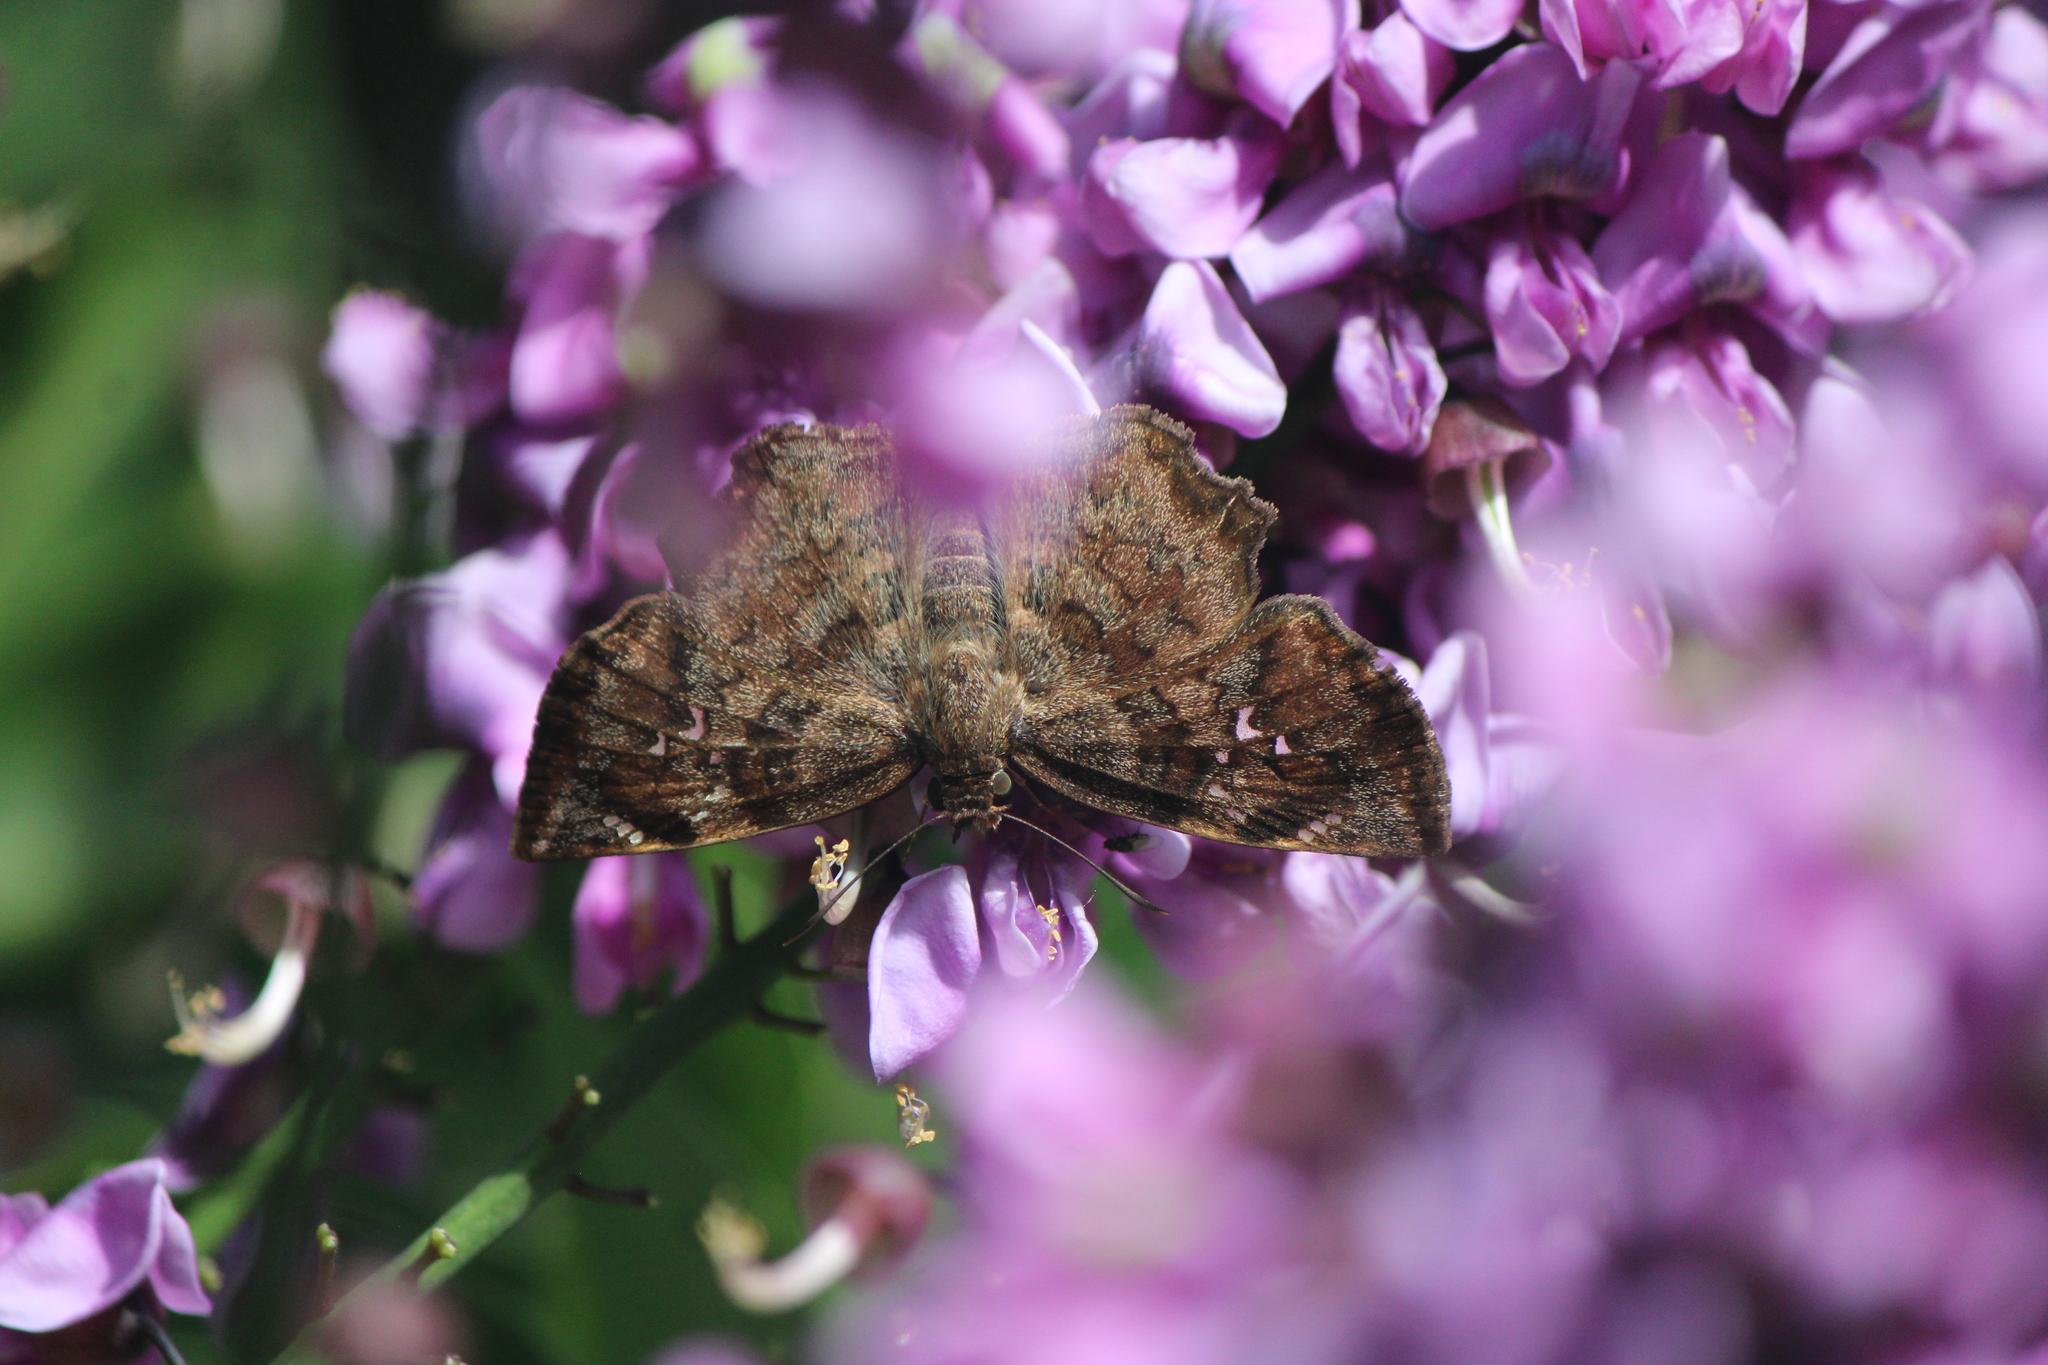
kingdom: Animalia
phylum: Arthropoda
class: Insecta
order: Lepidoptera
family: Hesperiidae
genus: Antigonus
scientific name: Antigonus erosus
